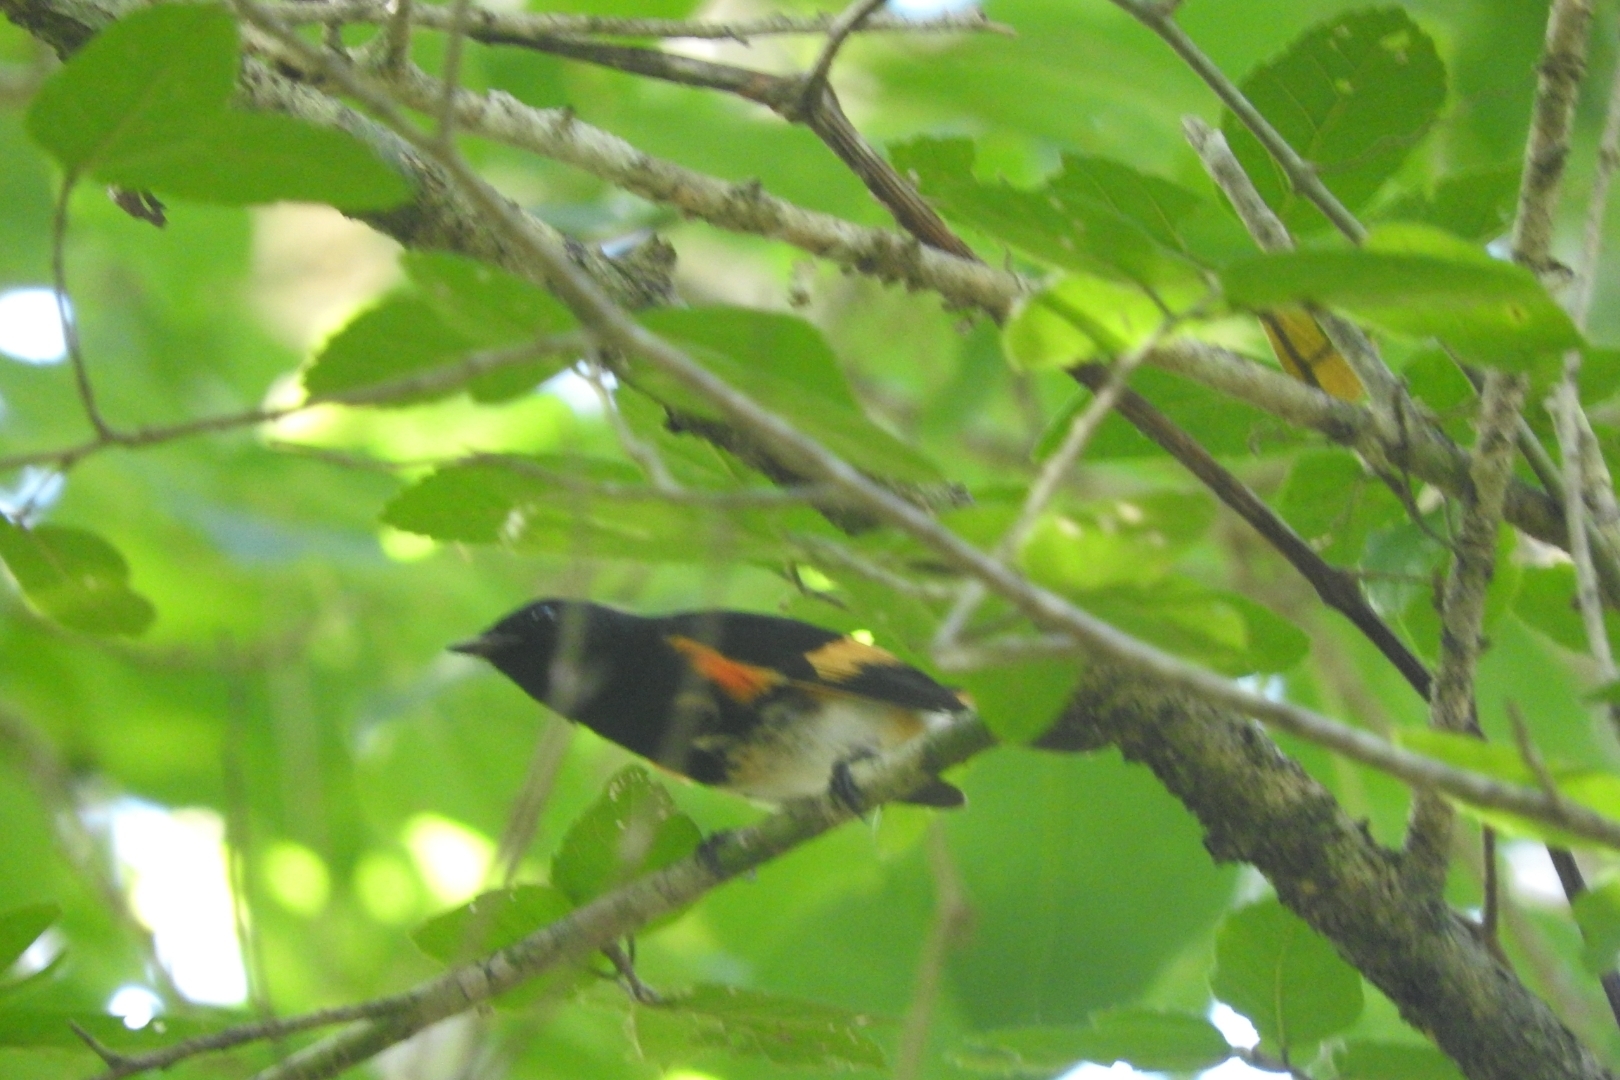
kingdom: Animalia
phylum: Chordata
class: Aves
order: Passeriformes
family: Parulidae
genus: Setophaga
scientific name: Setophaga ruticilla
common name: American redstart
